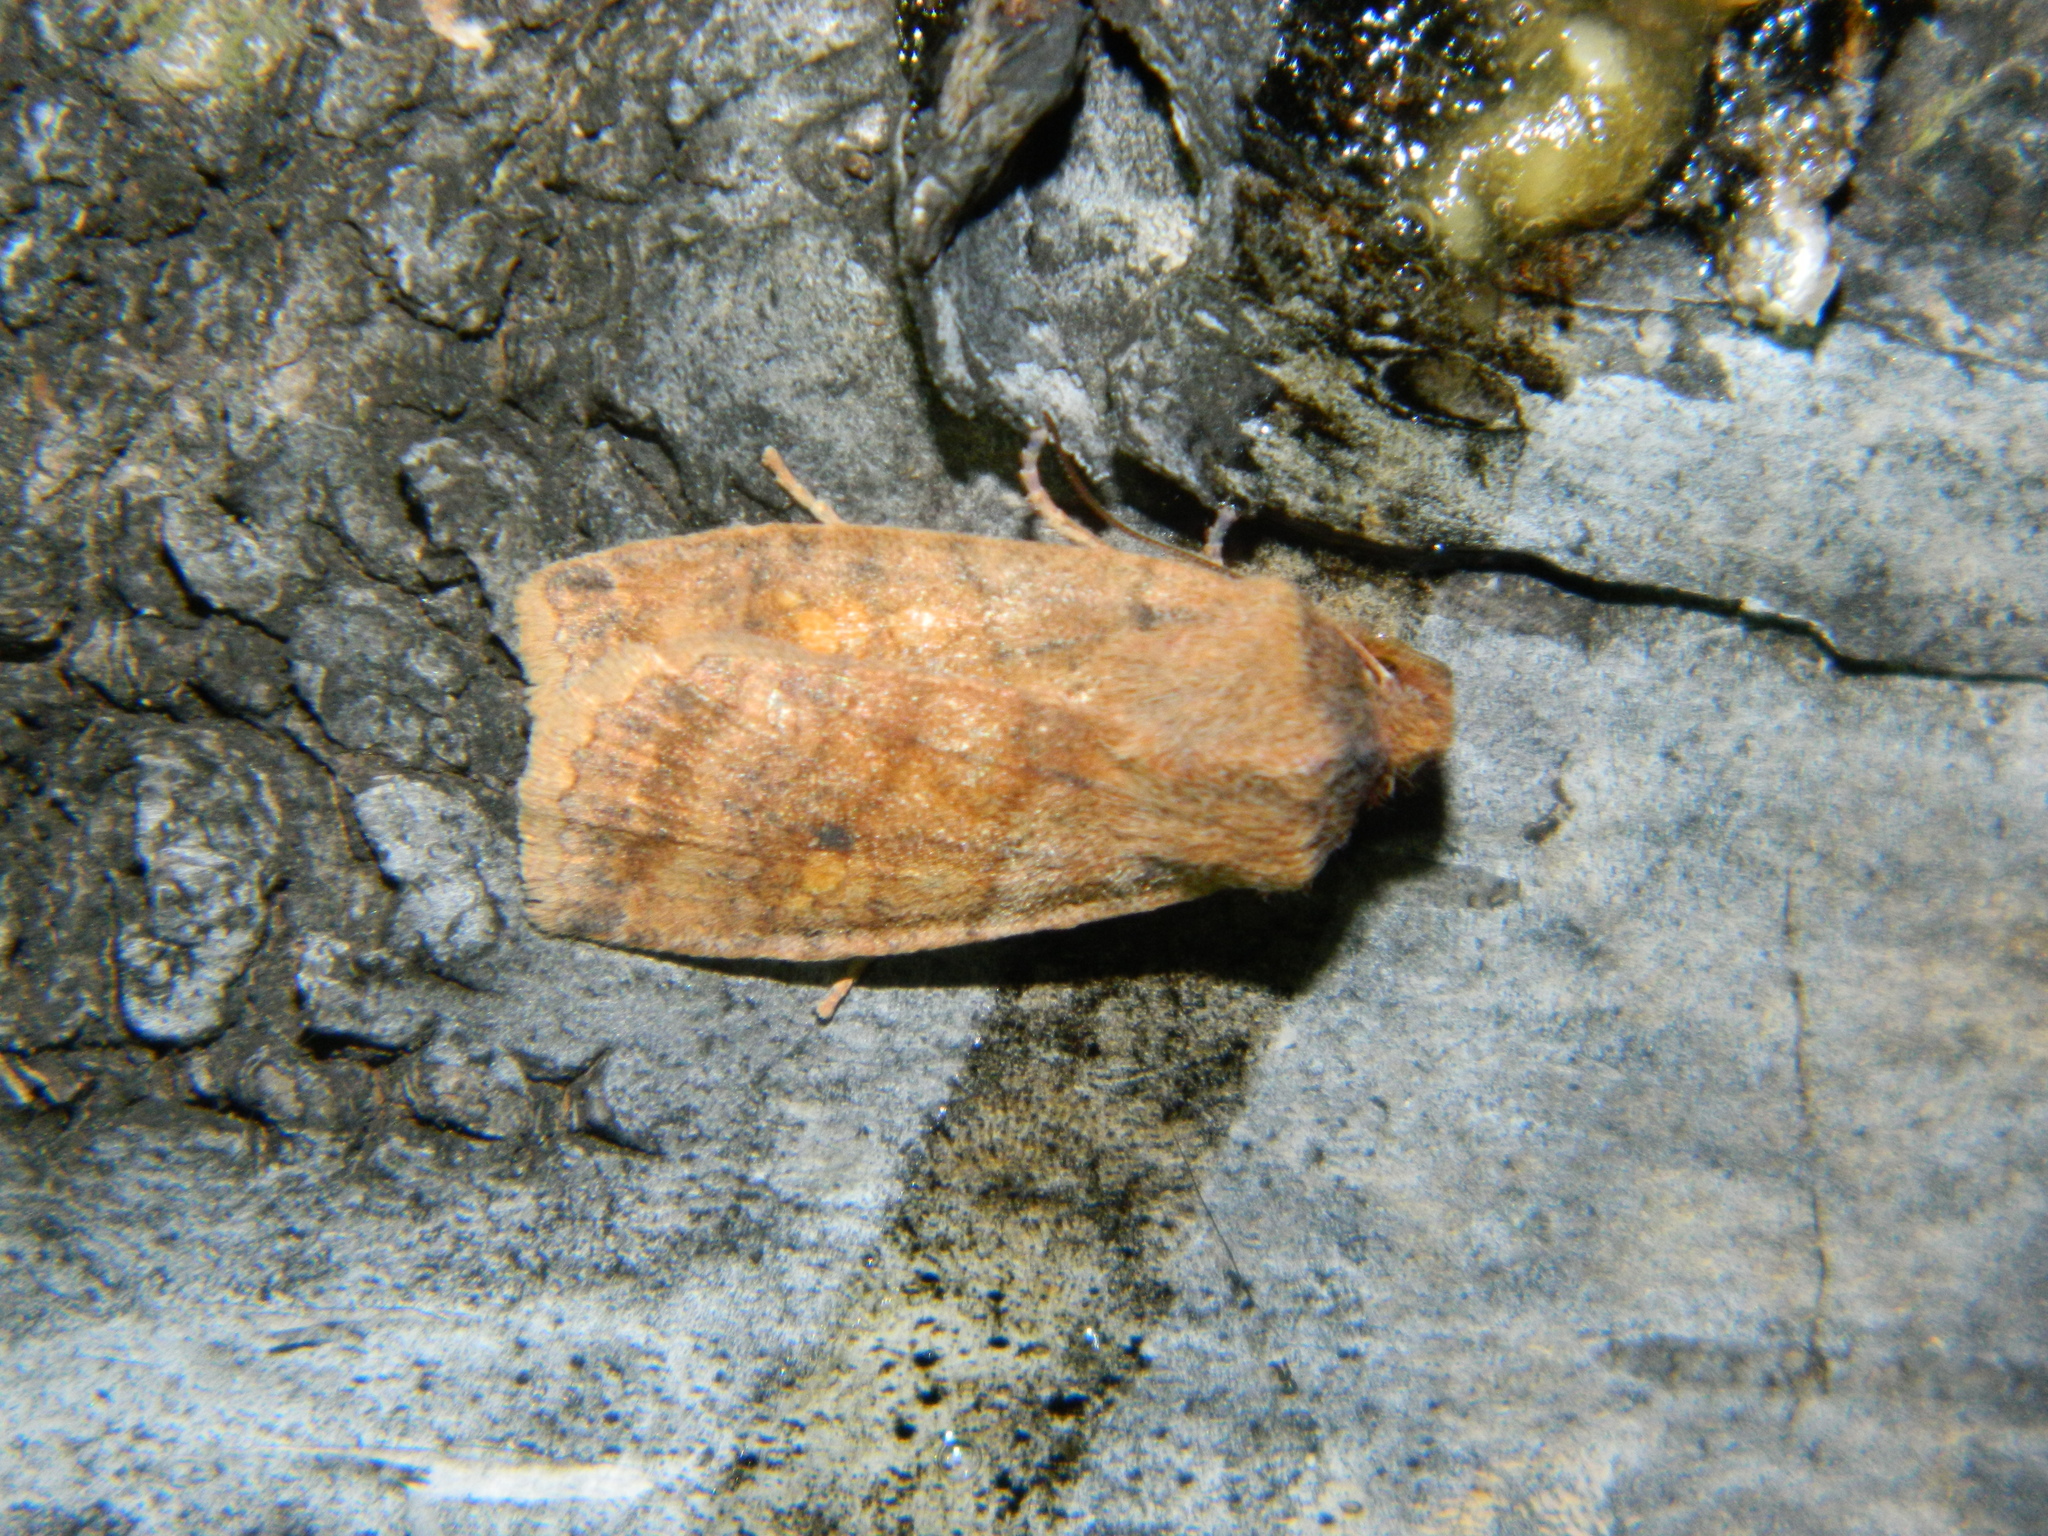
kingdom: Animalia
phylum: Arthropoda
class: Insecta
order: Lepidoptera
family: Noctuidae
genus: Eupsilia
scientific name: Eupsilia tristigmata
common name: Three-spotted sallow
